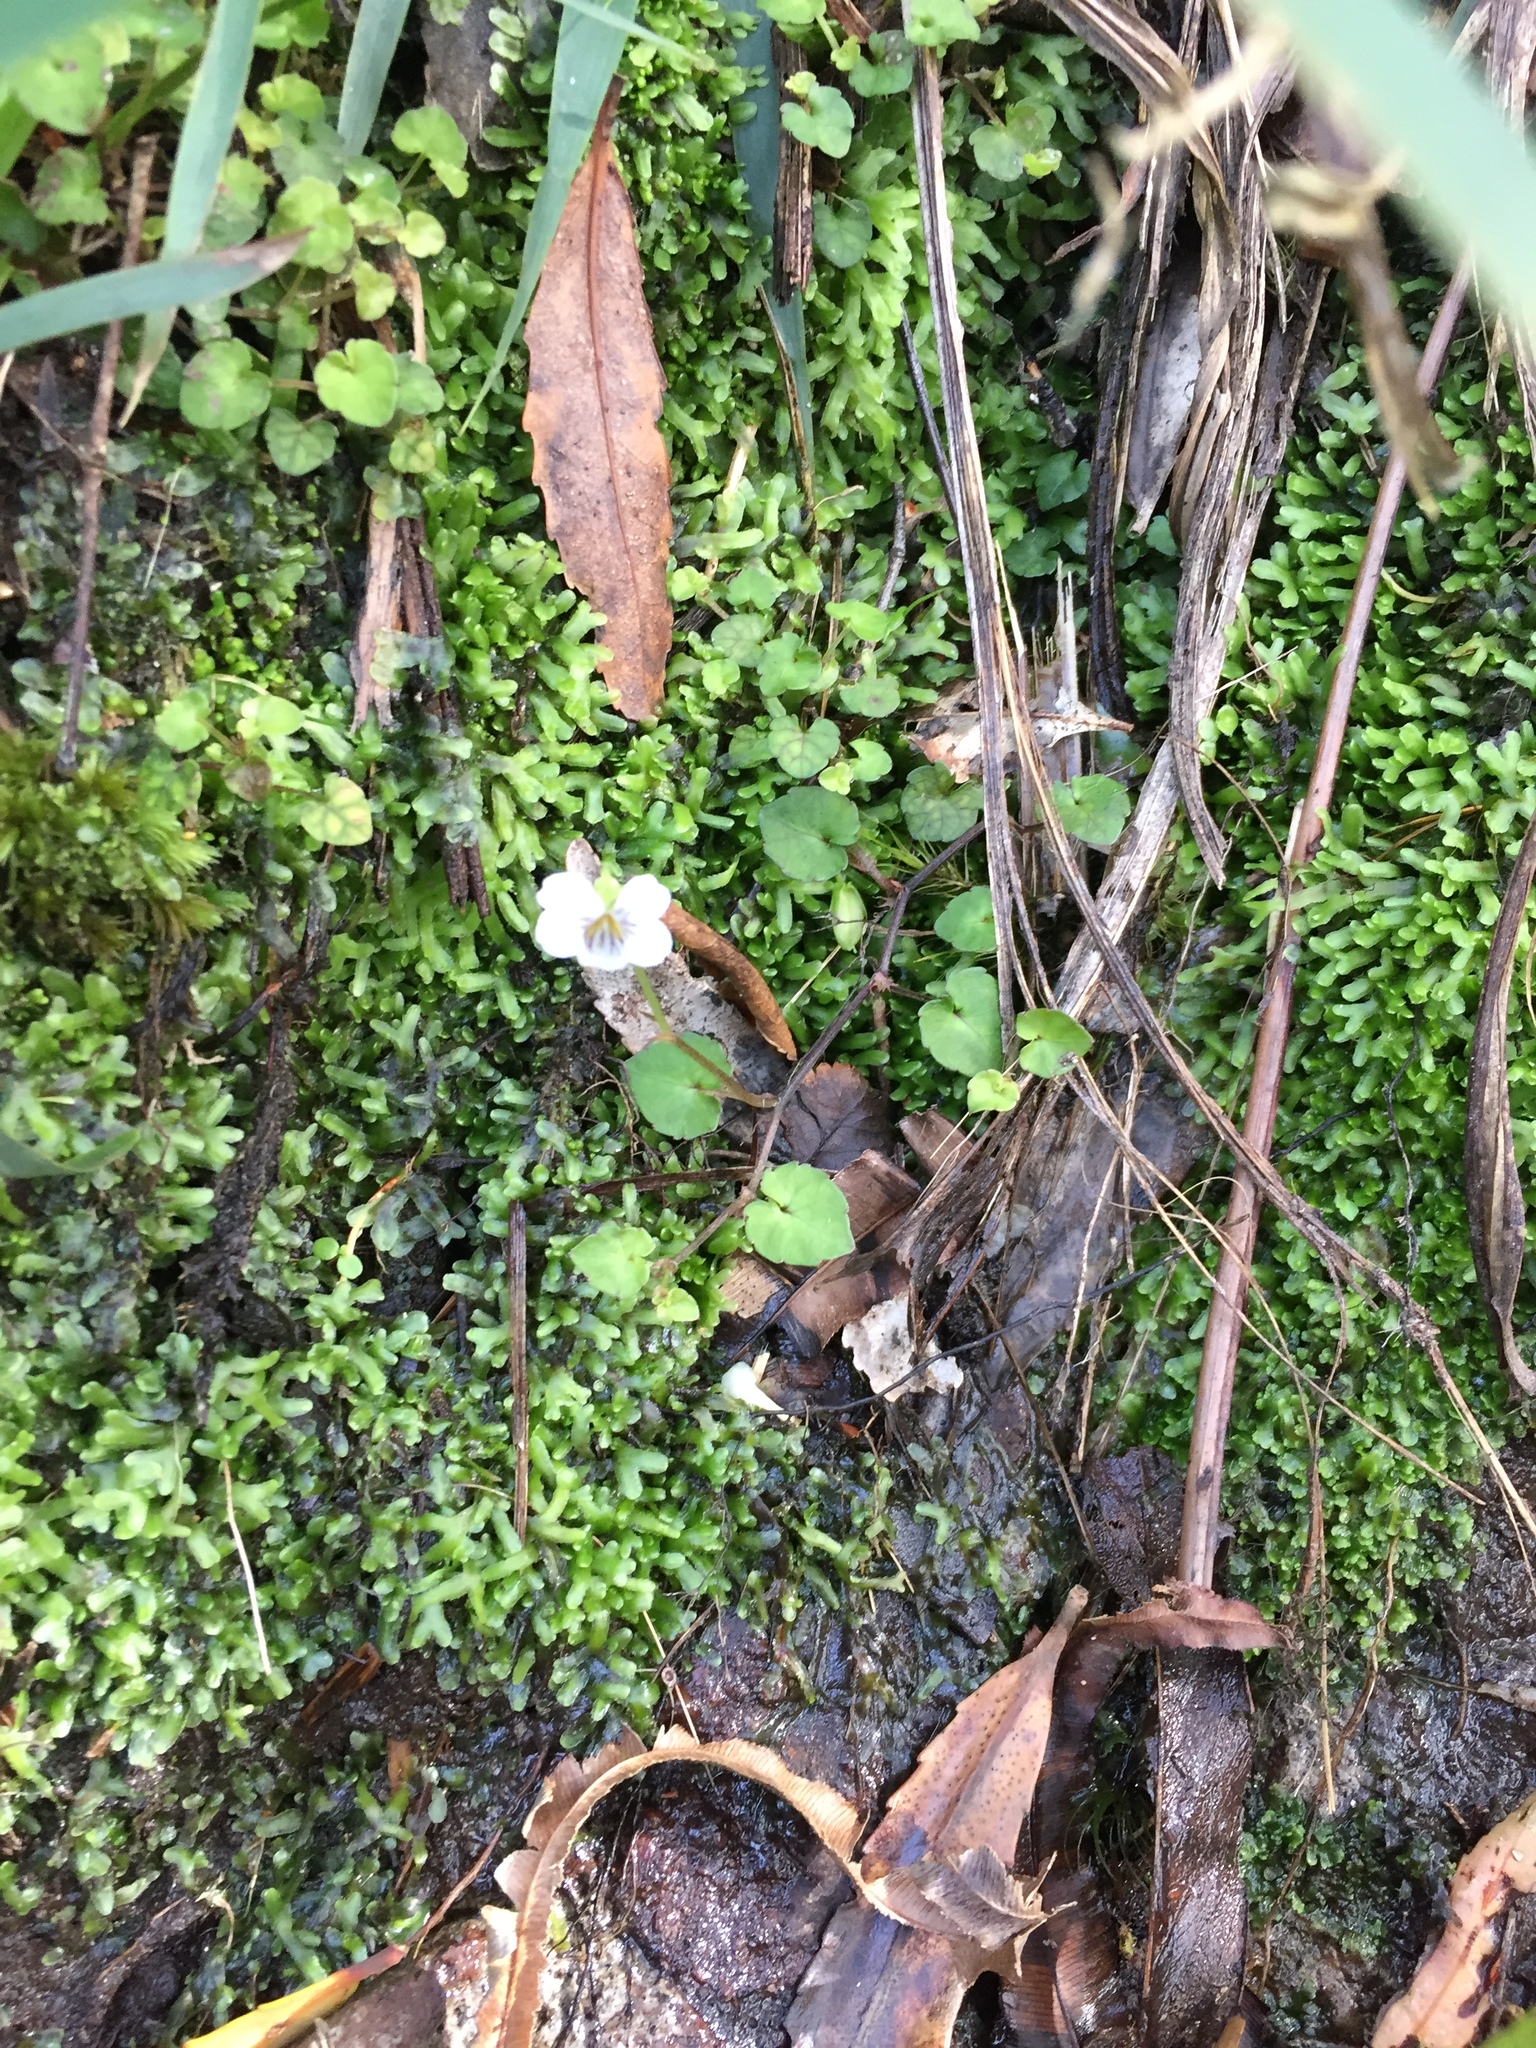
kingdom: Plantae
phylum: Tracheophyta
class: Magnoliopsida
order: Malpighiales
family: Violaceae
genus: Viola
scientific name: Viola filicaulis
